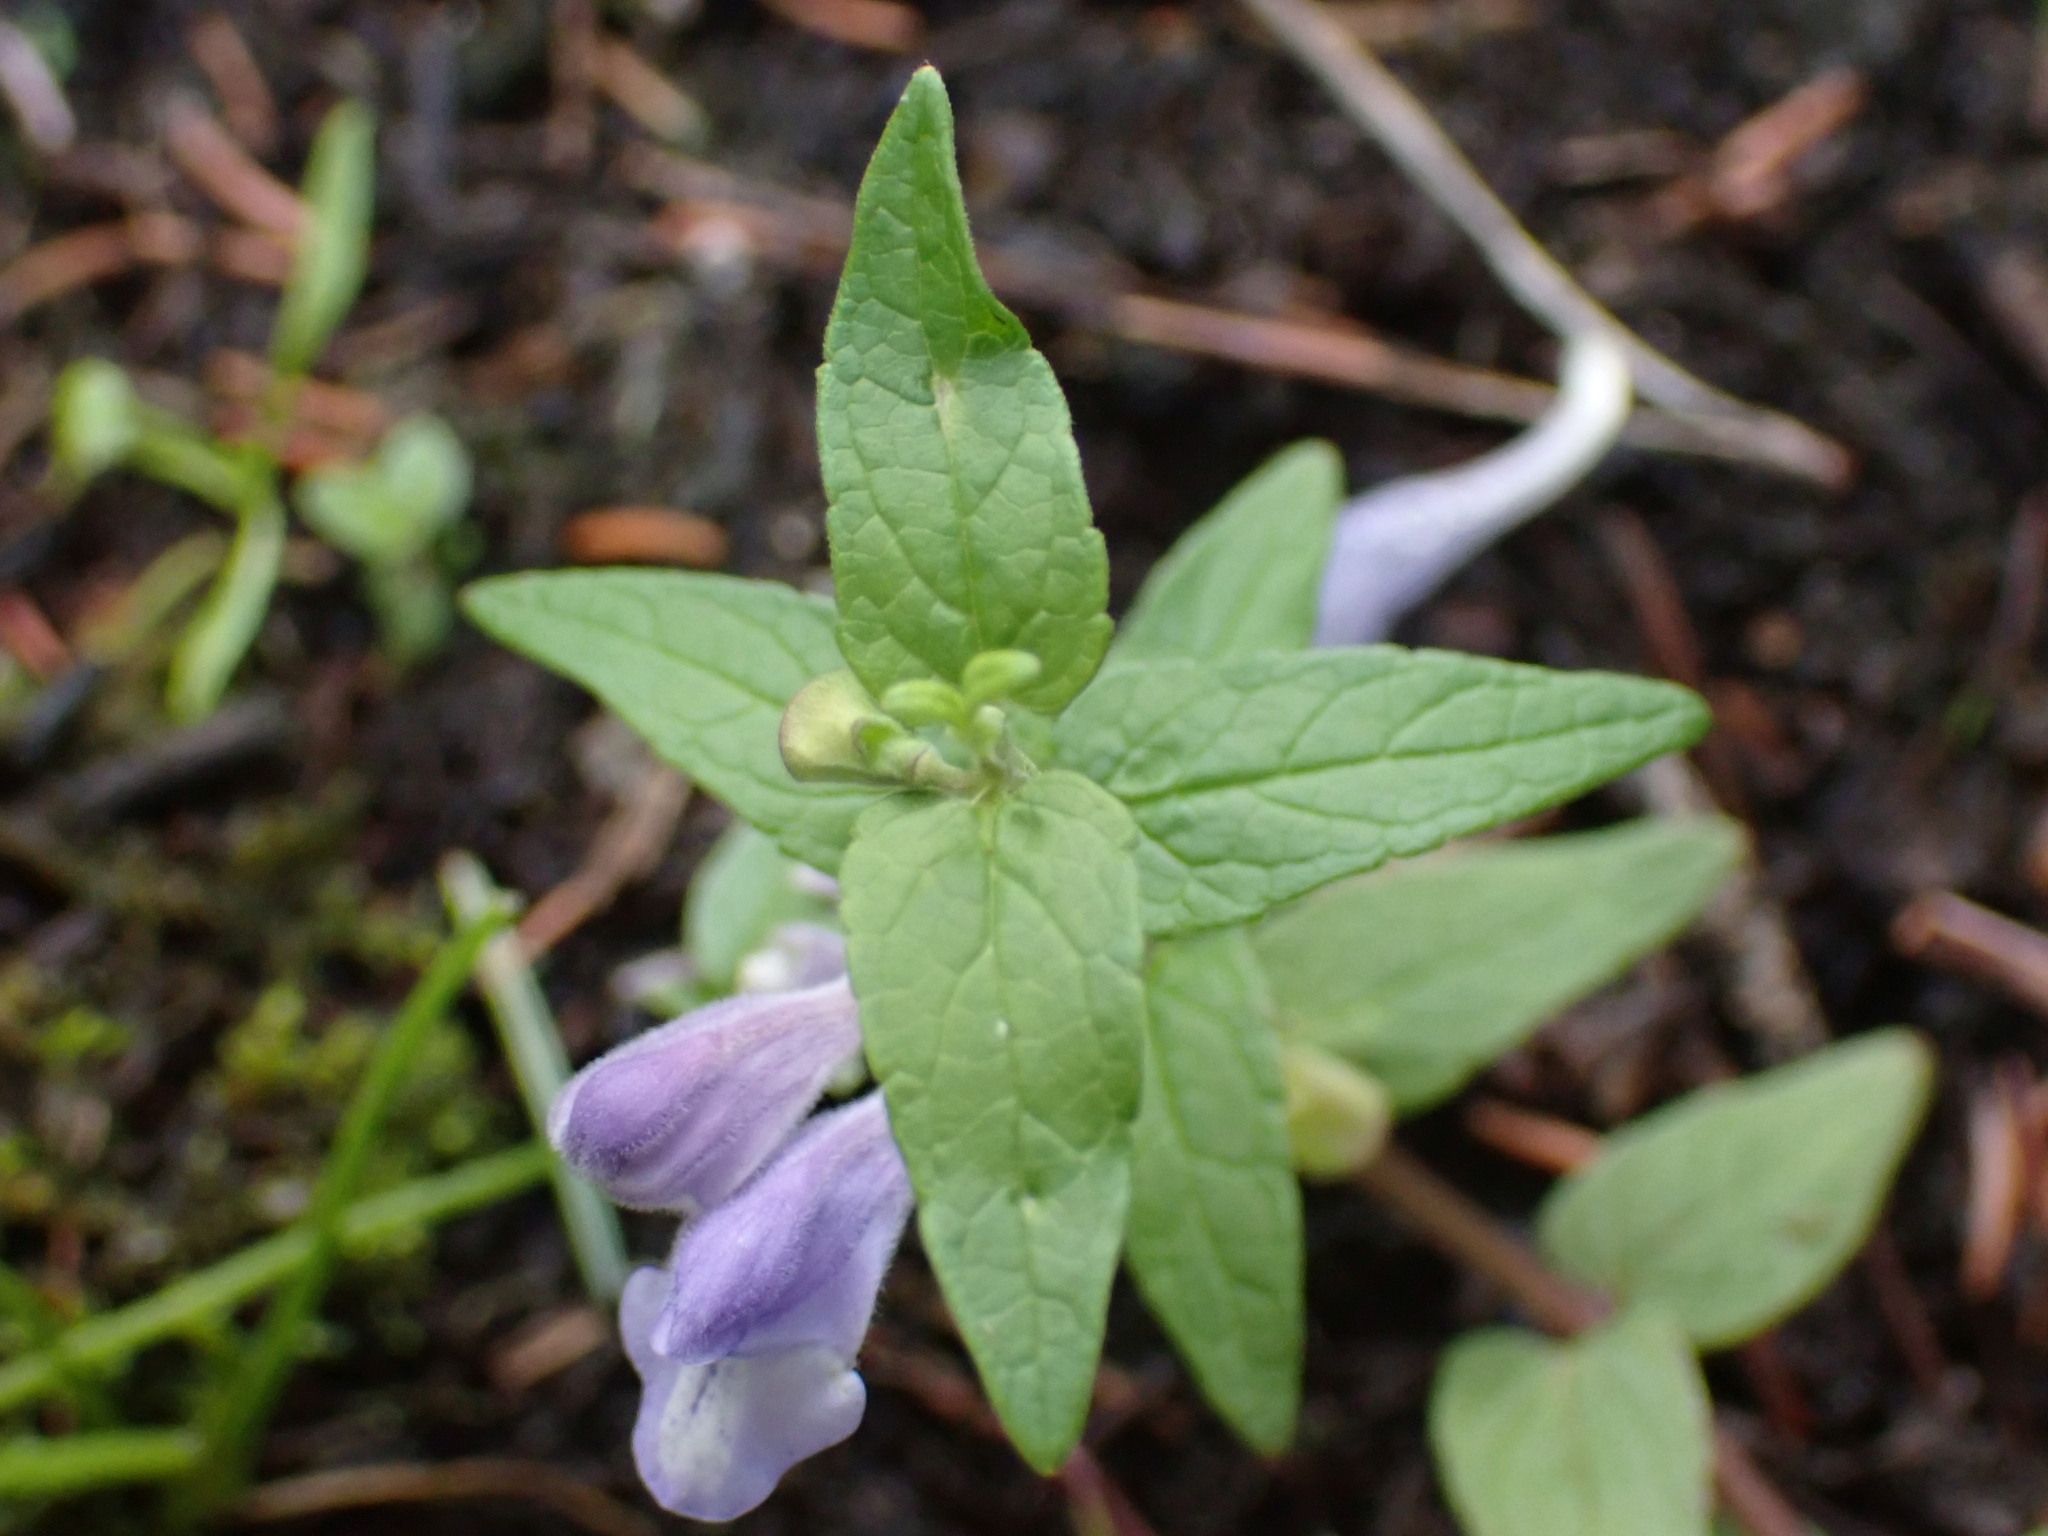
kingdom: Plantae
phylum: Tracheophyta
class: Magnoliopsida
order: Lamiales
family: Lamiaceae
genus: Scutellaria
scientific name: Scutellaria galericulata
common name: Skullcap
